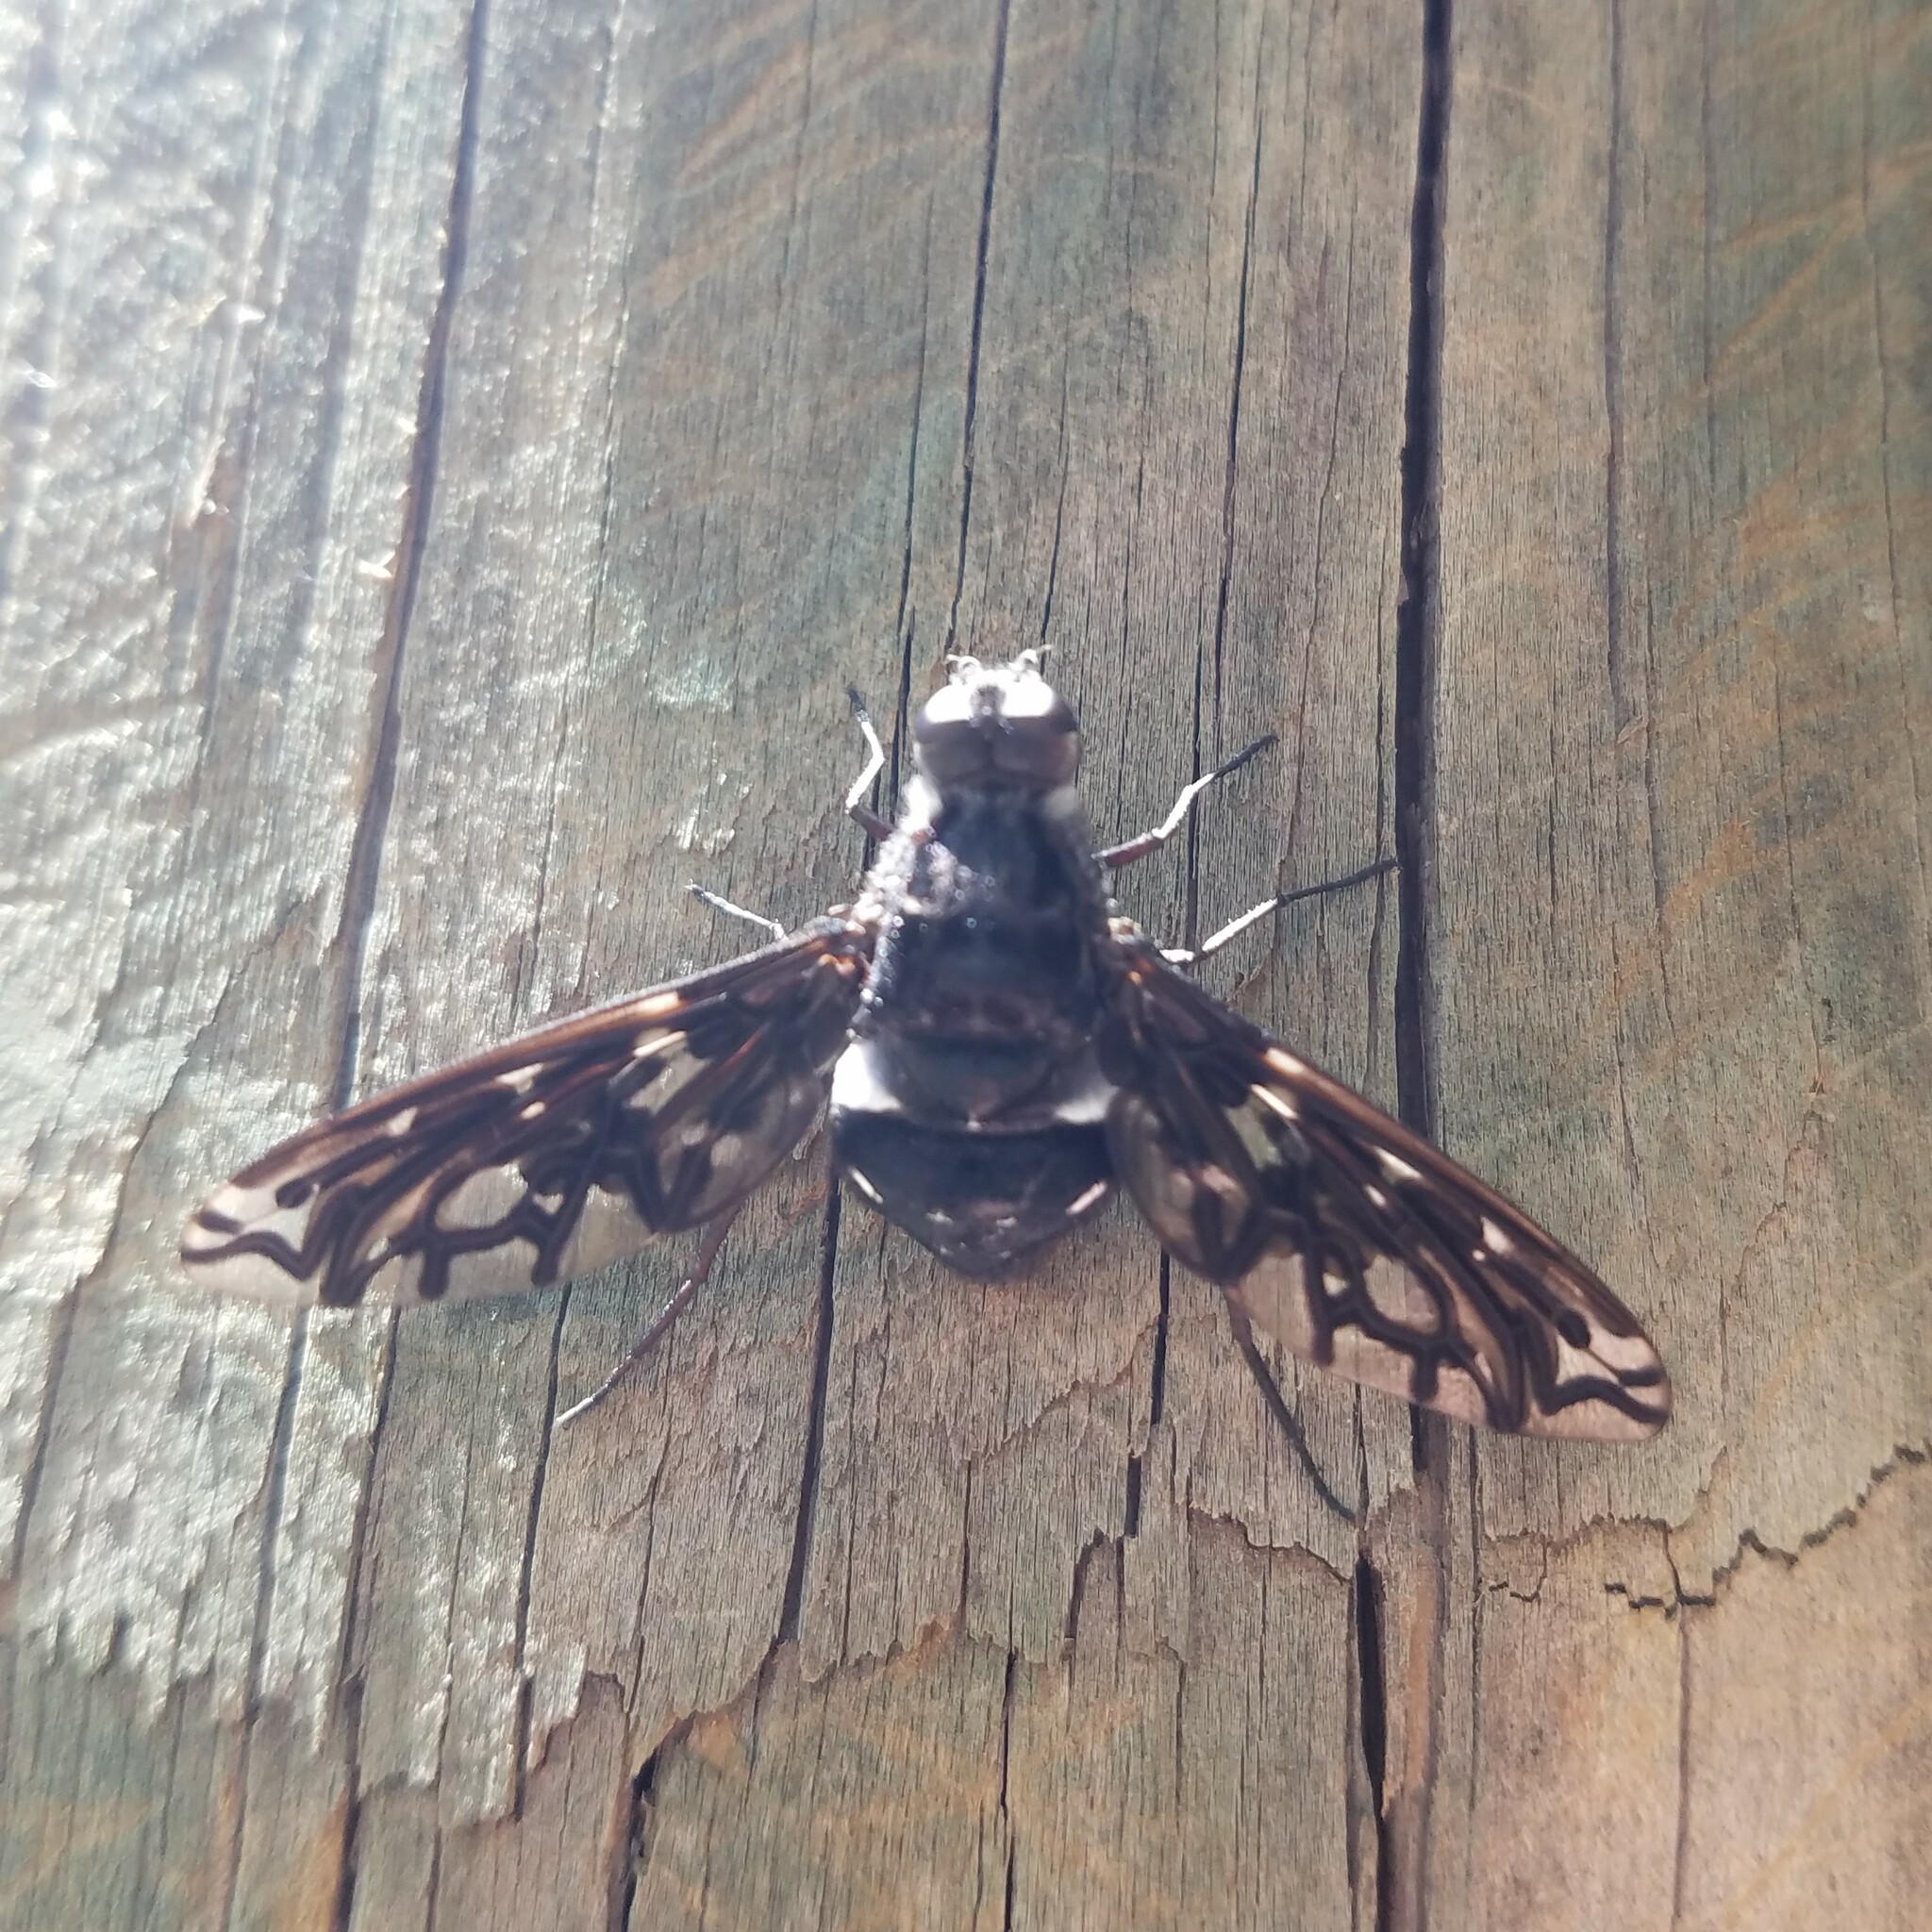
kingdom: Animalia
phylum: Arthropoda
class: Insecta
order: Diptera
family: Bombyliidae
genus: Xenox
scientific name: Xenox tigrinus
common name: Tiger bee fly
